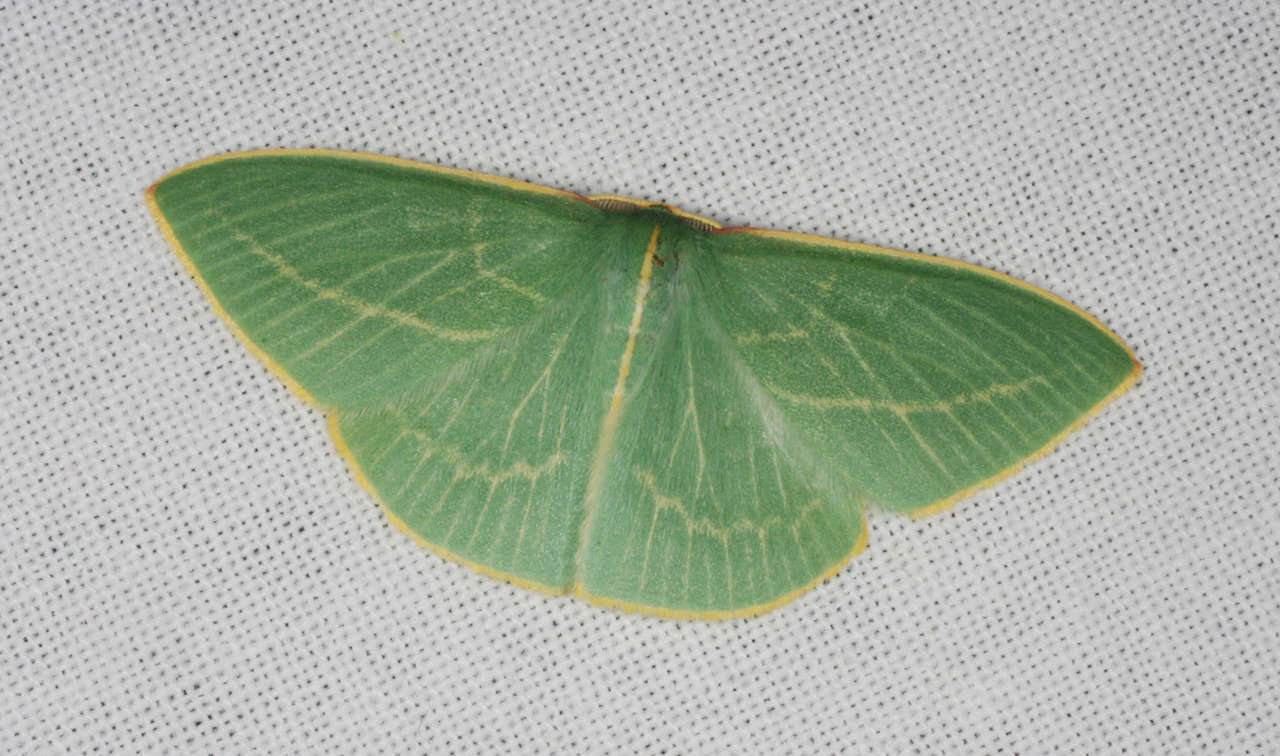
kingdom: Animalia
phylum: Arthropoda
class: Insecta
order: Lepidoptera
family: Geometridae
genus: Chlorocoma
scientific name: Chlorocoma carenaria
